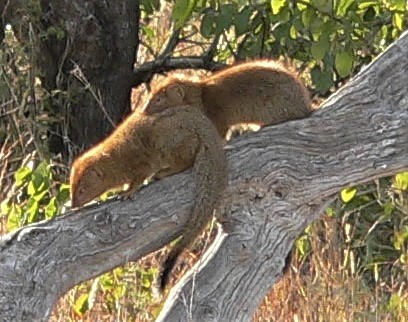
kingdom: Animalia
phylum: Chordata
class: Mammalia
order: Carnivora
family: Herpestidae
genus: Galerella
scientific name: Galerella sanguinea
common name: Slender mongoose
